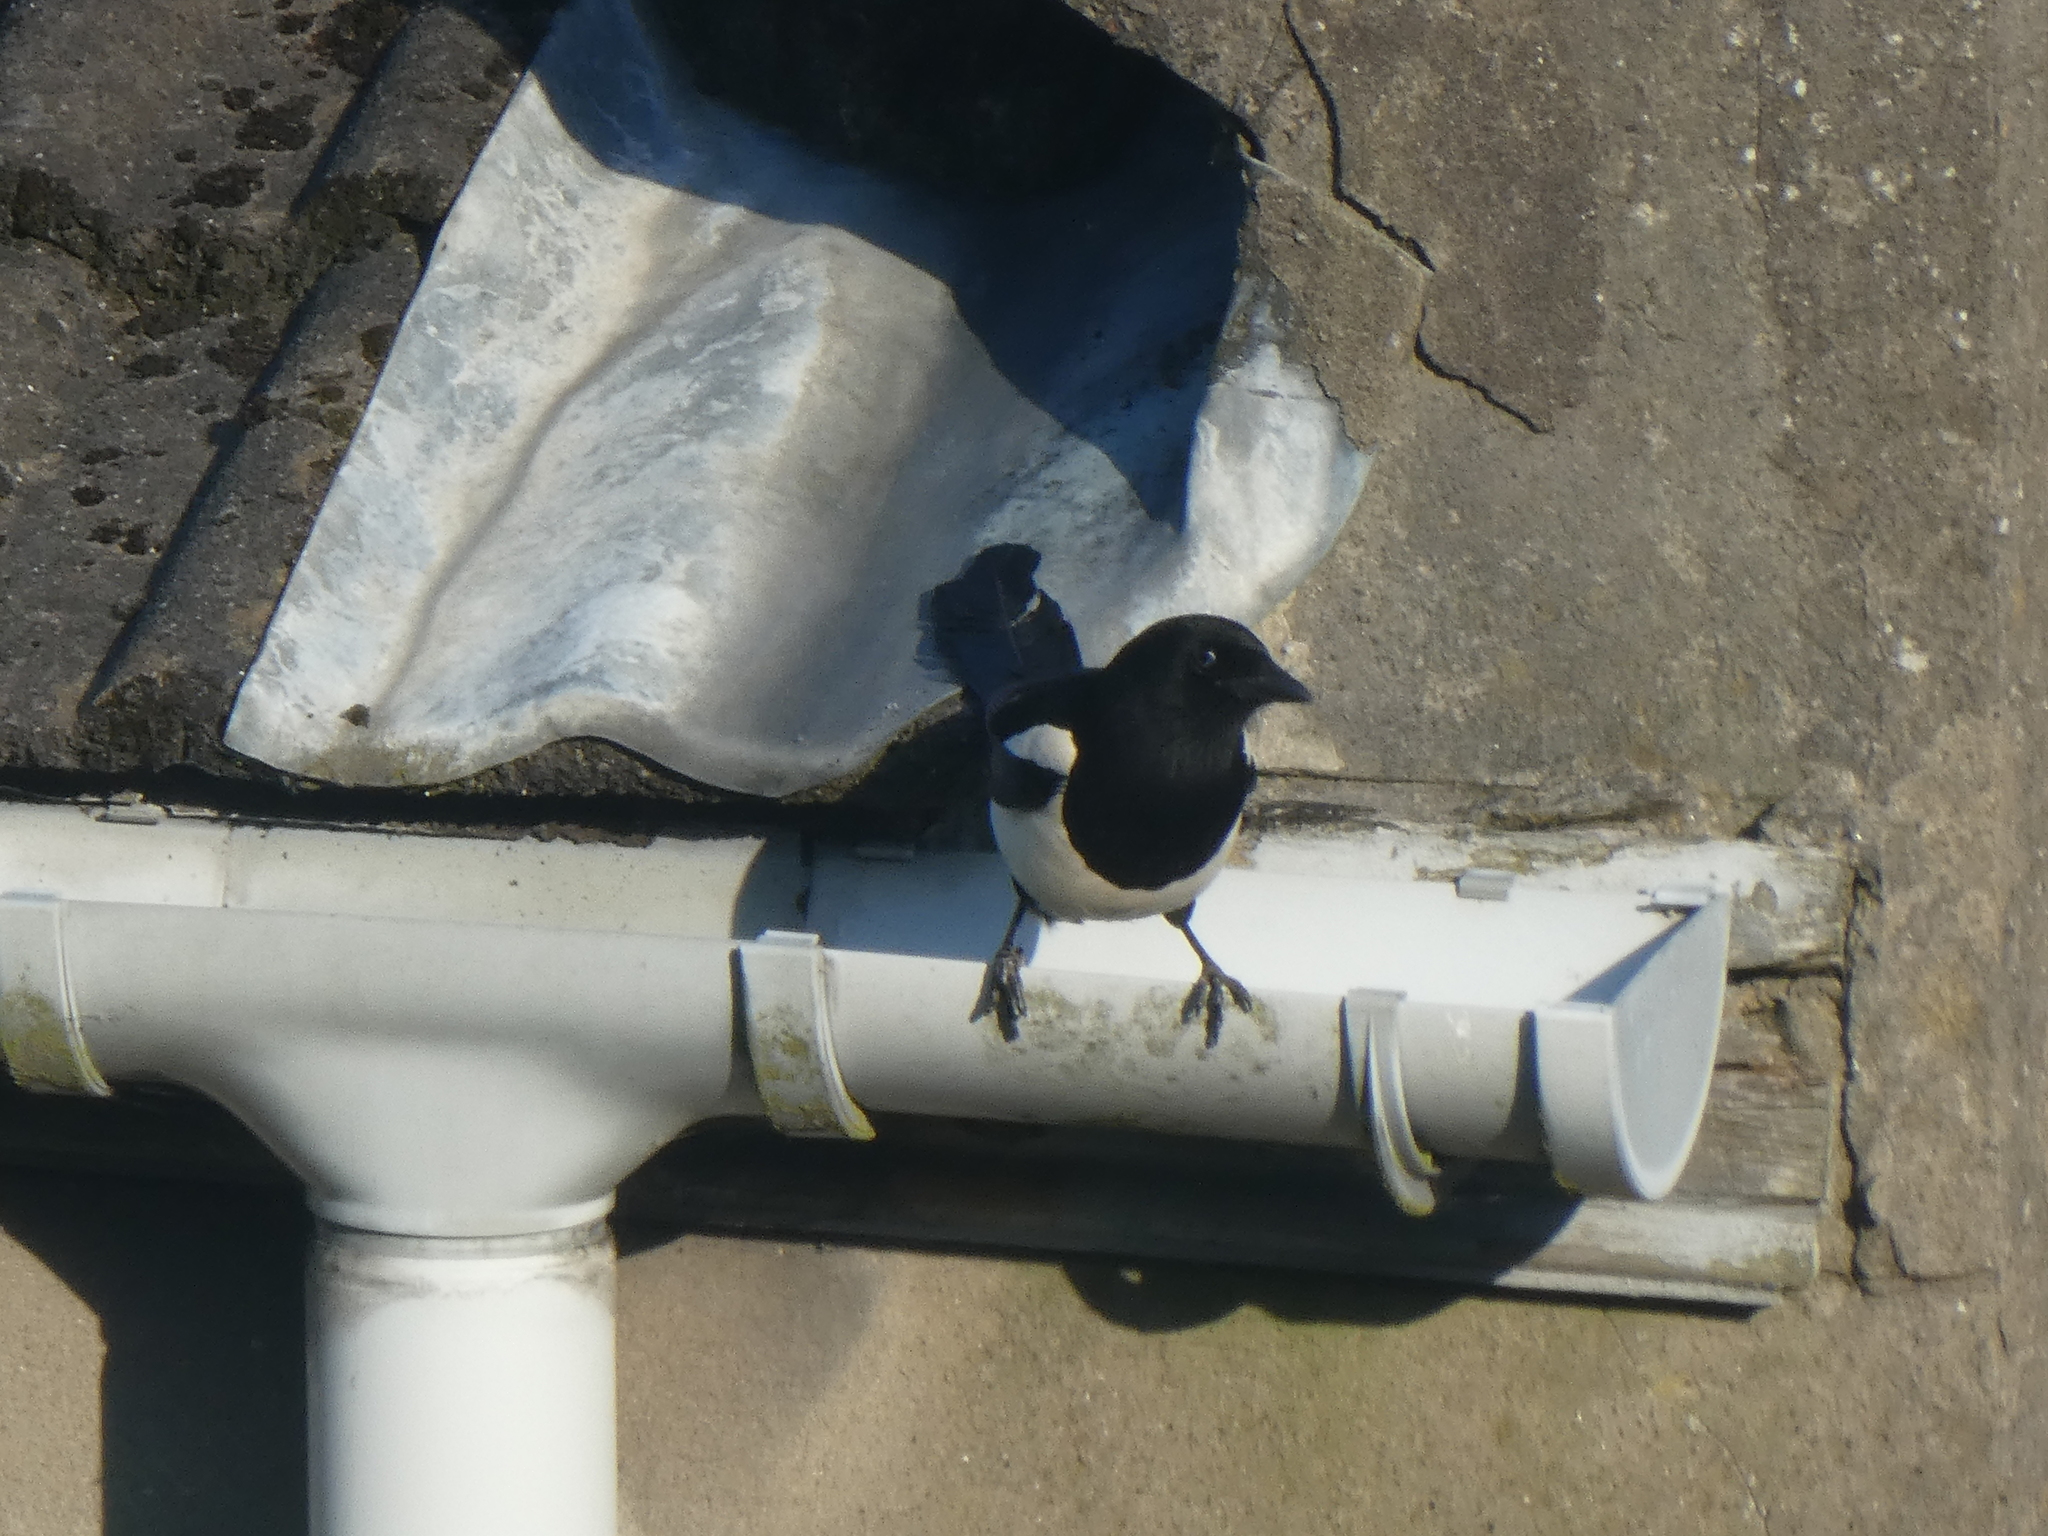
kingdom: Animalia
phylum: Chordata
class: Aves
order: Passeriformes
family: Corvidae
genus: Pica
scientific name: Pica pica
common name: Eurasian magpie
